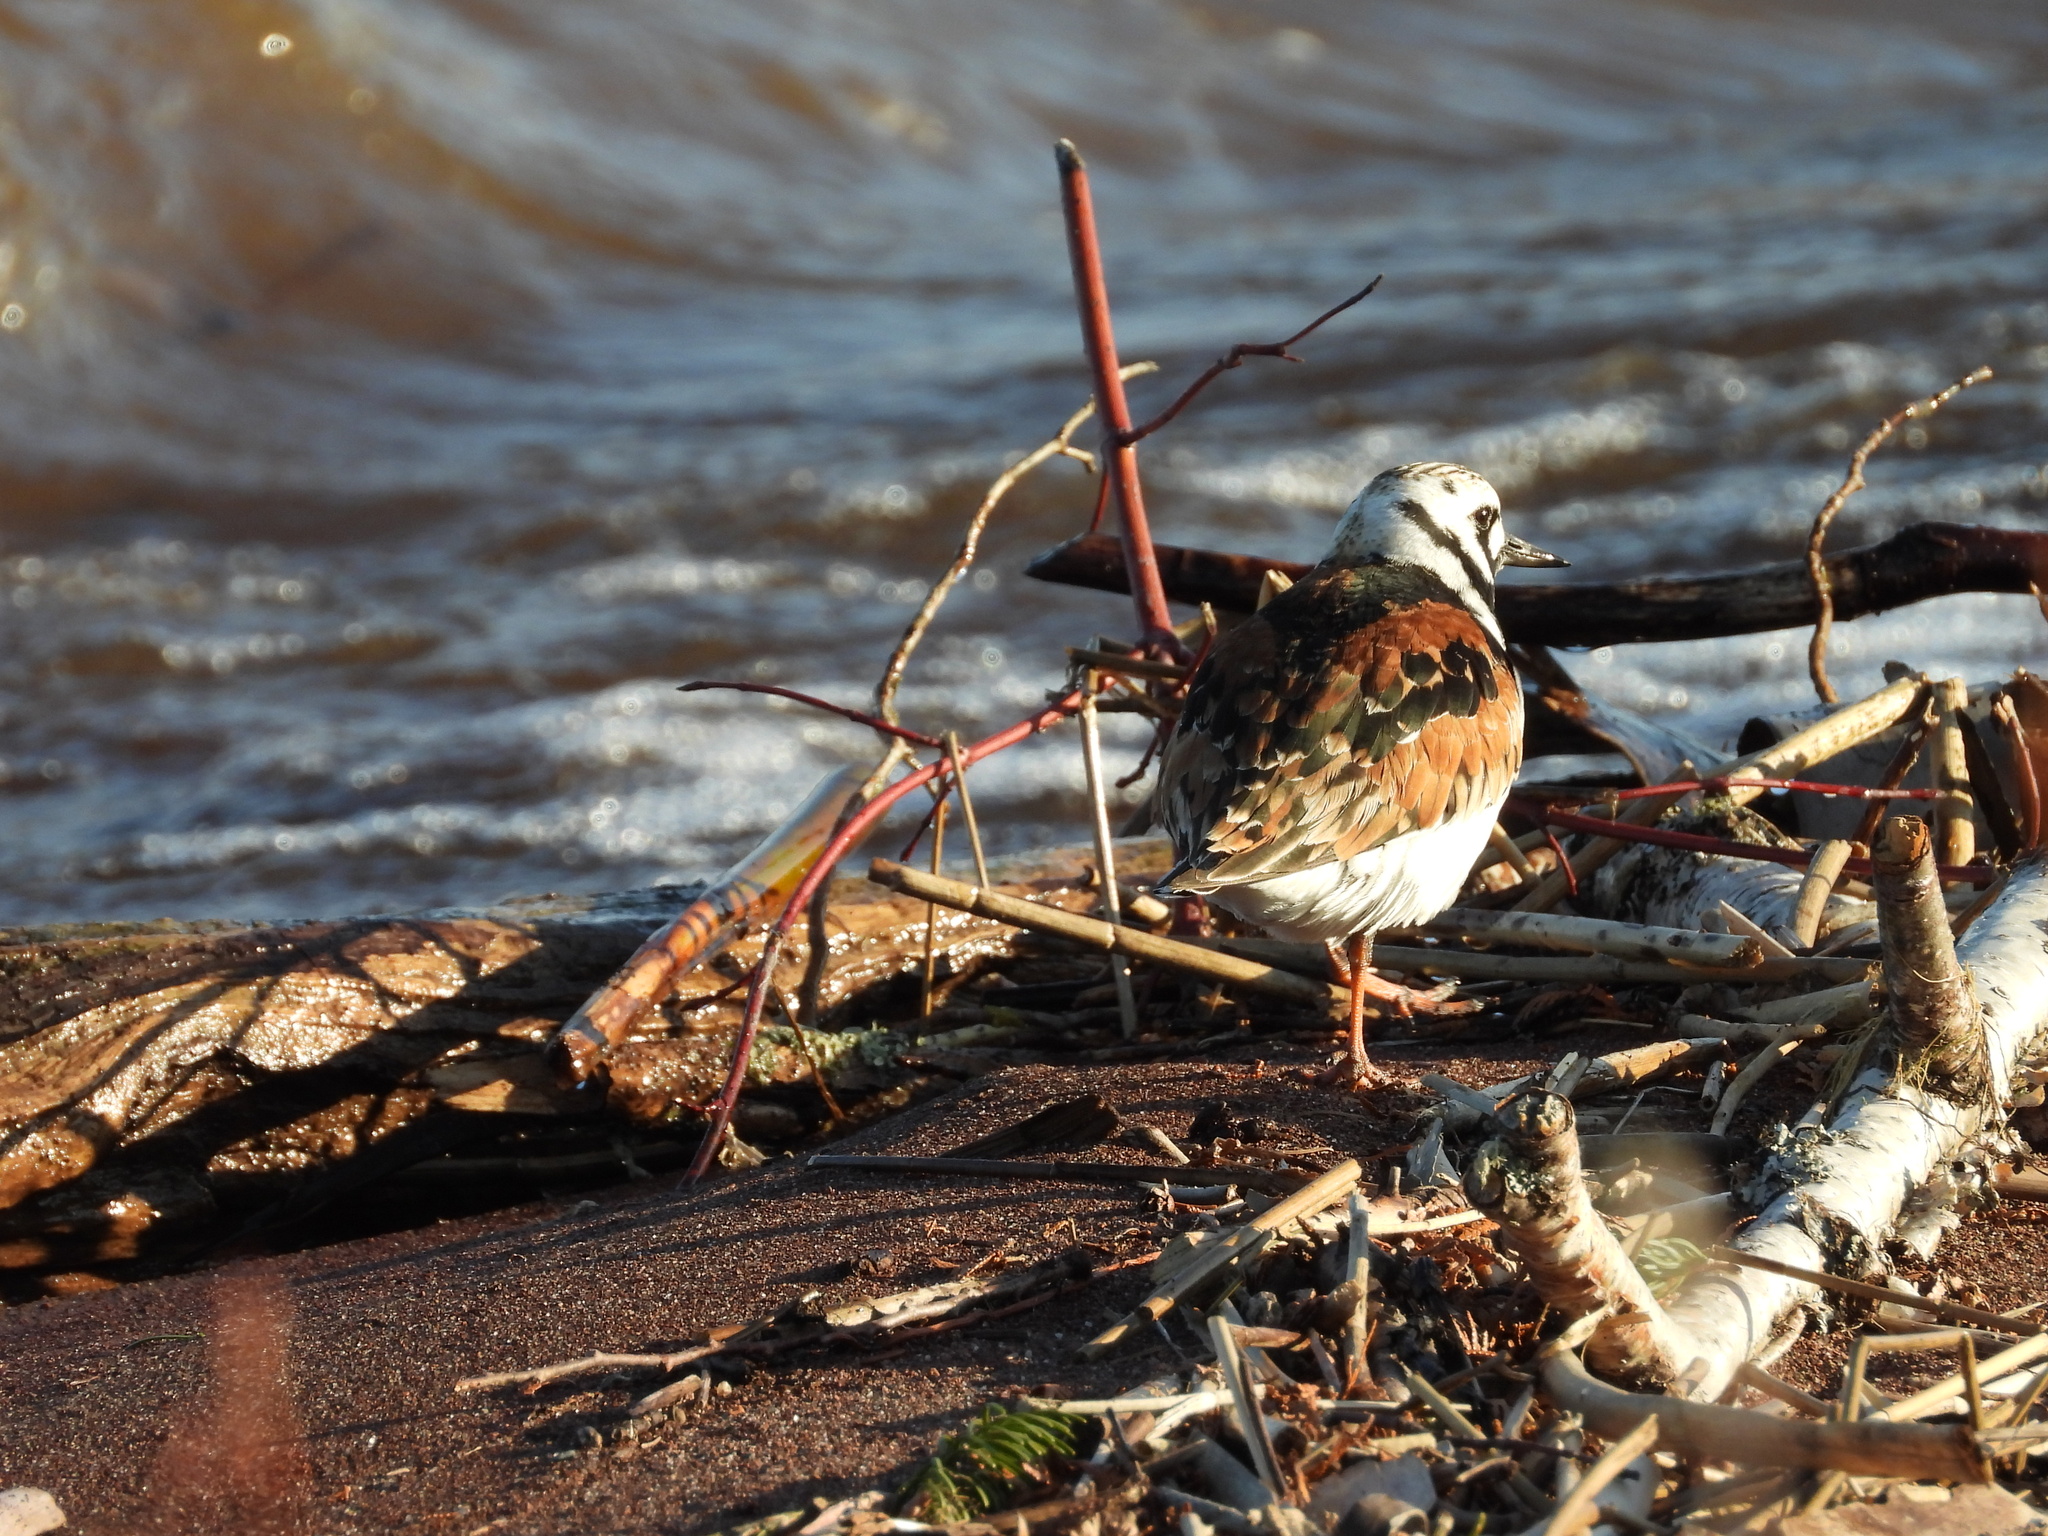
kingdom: Animalia
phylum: Chordata
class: Aves
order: Charadriiformes
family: Scolopacidae
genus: Arenaria
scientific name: Arenaria interpres
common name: Ruddy turnstone
